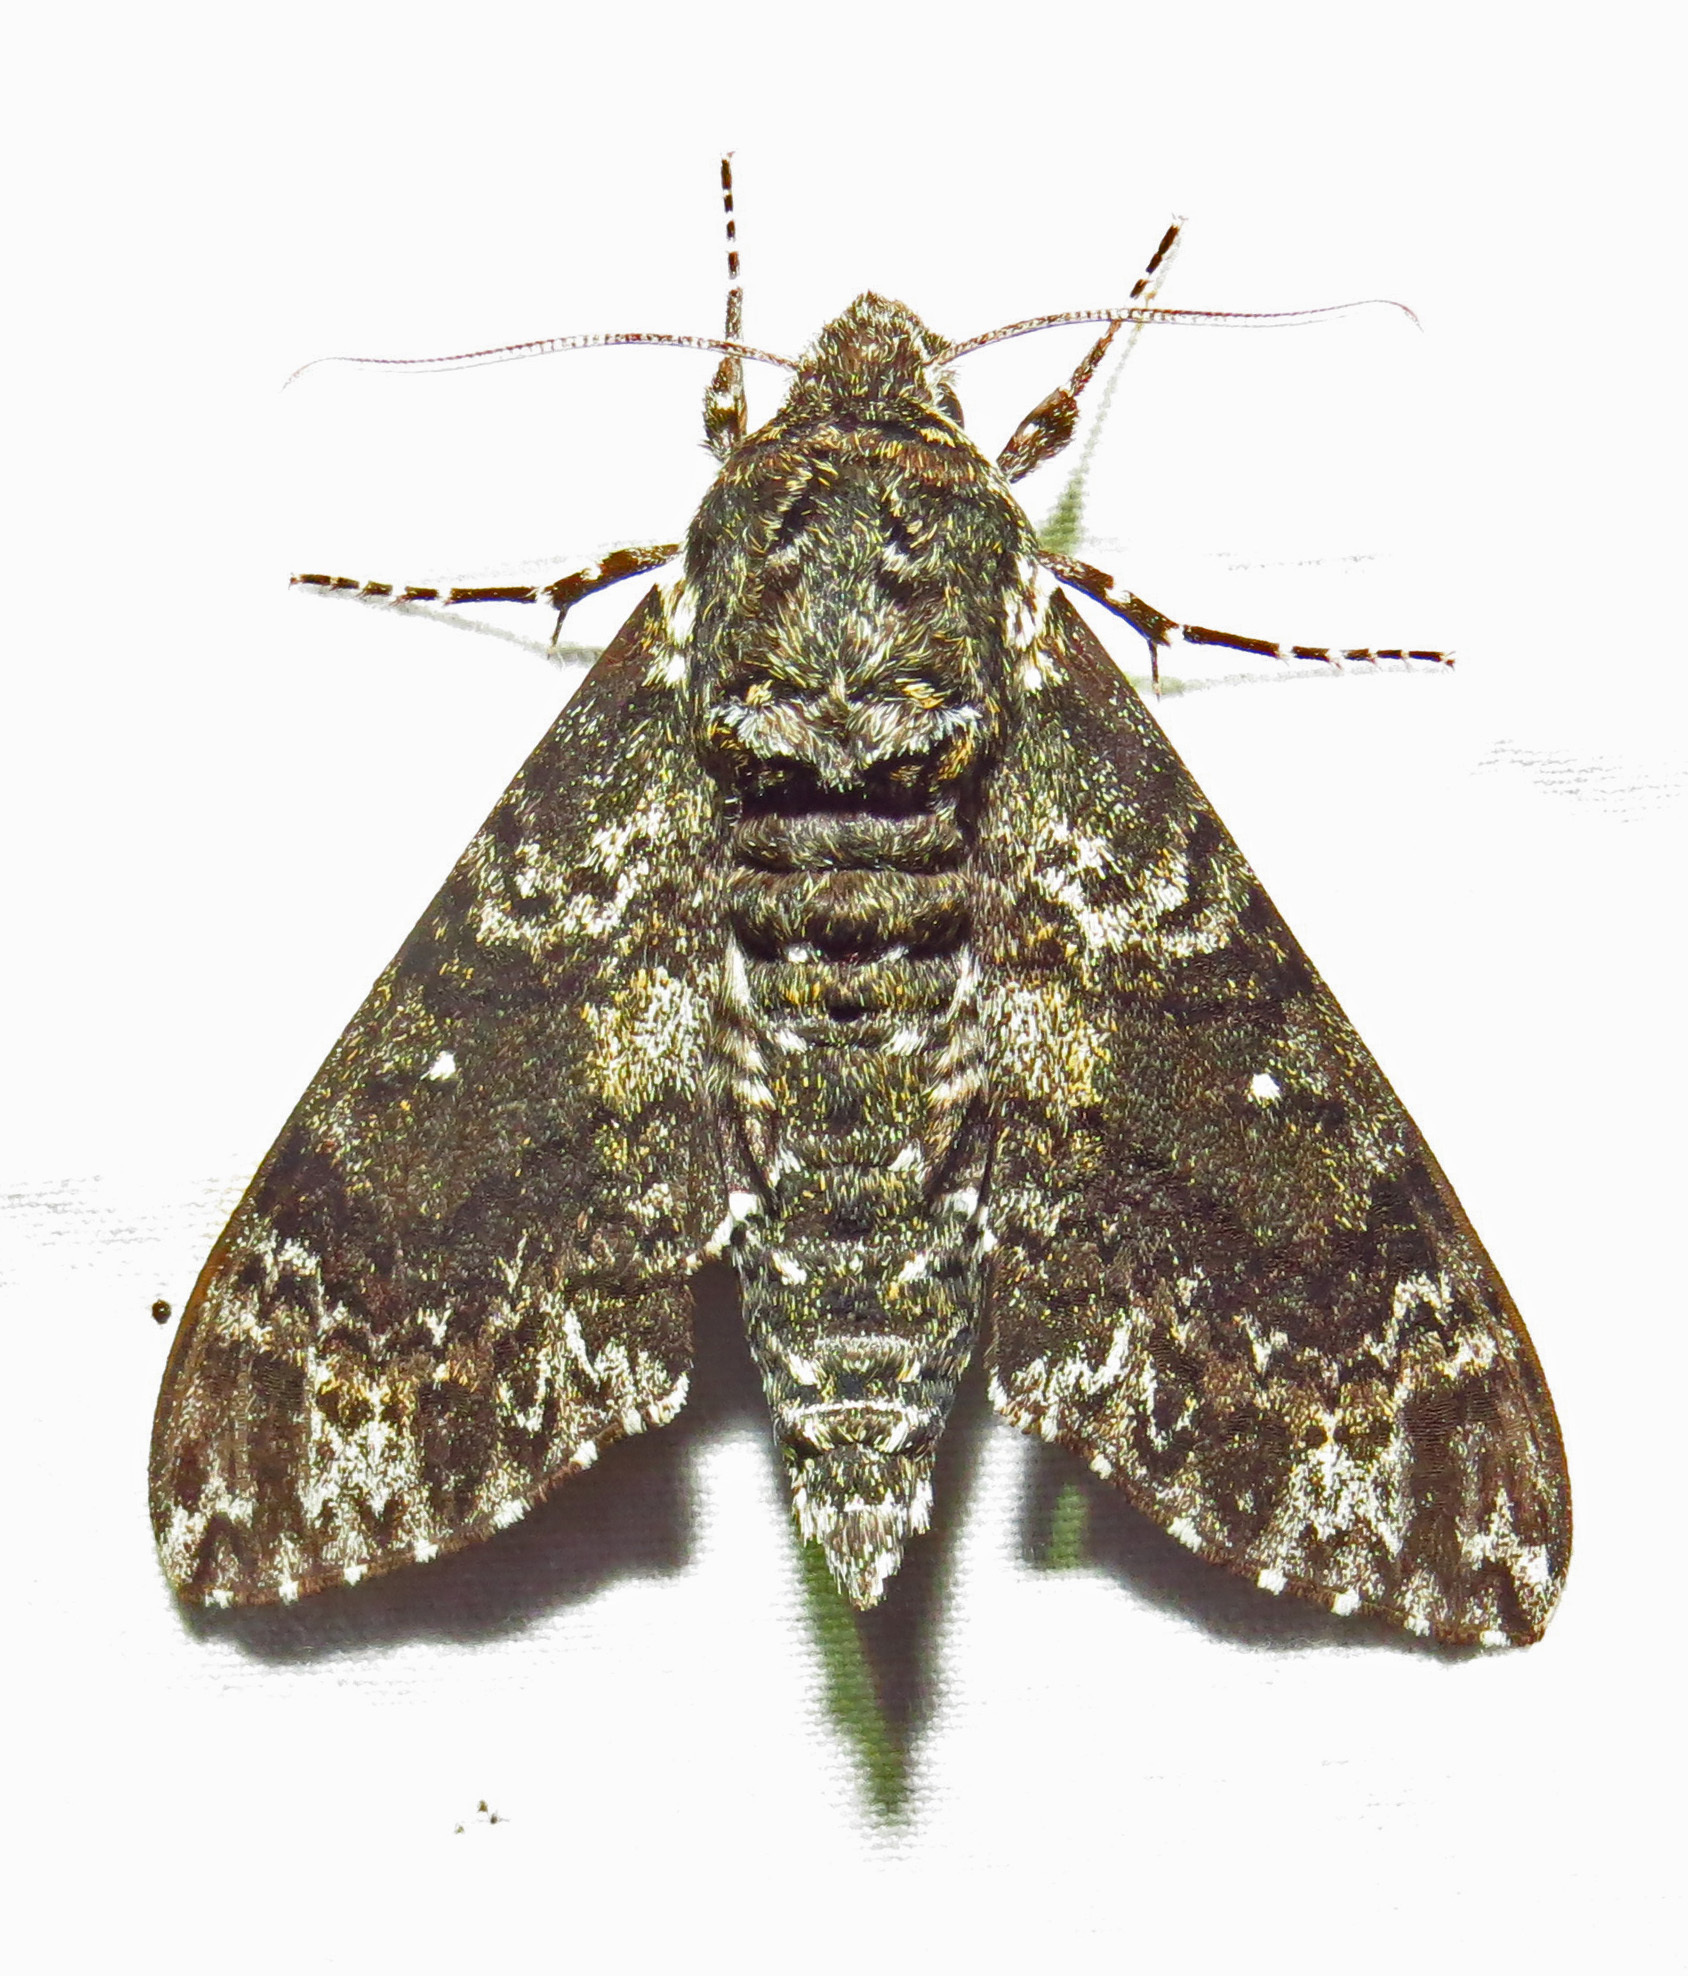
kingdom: Animalia
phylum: Arthropoda
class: Insecta
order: Lepidoptera
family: Sphingidae
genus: Dolba
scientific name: Dolba hyloeus
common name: Pawpaw sphinx
